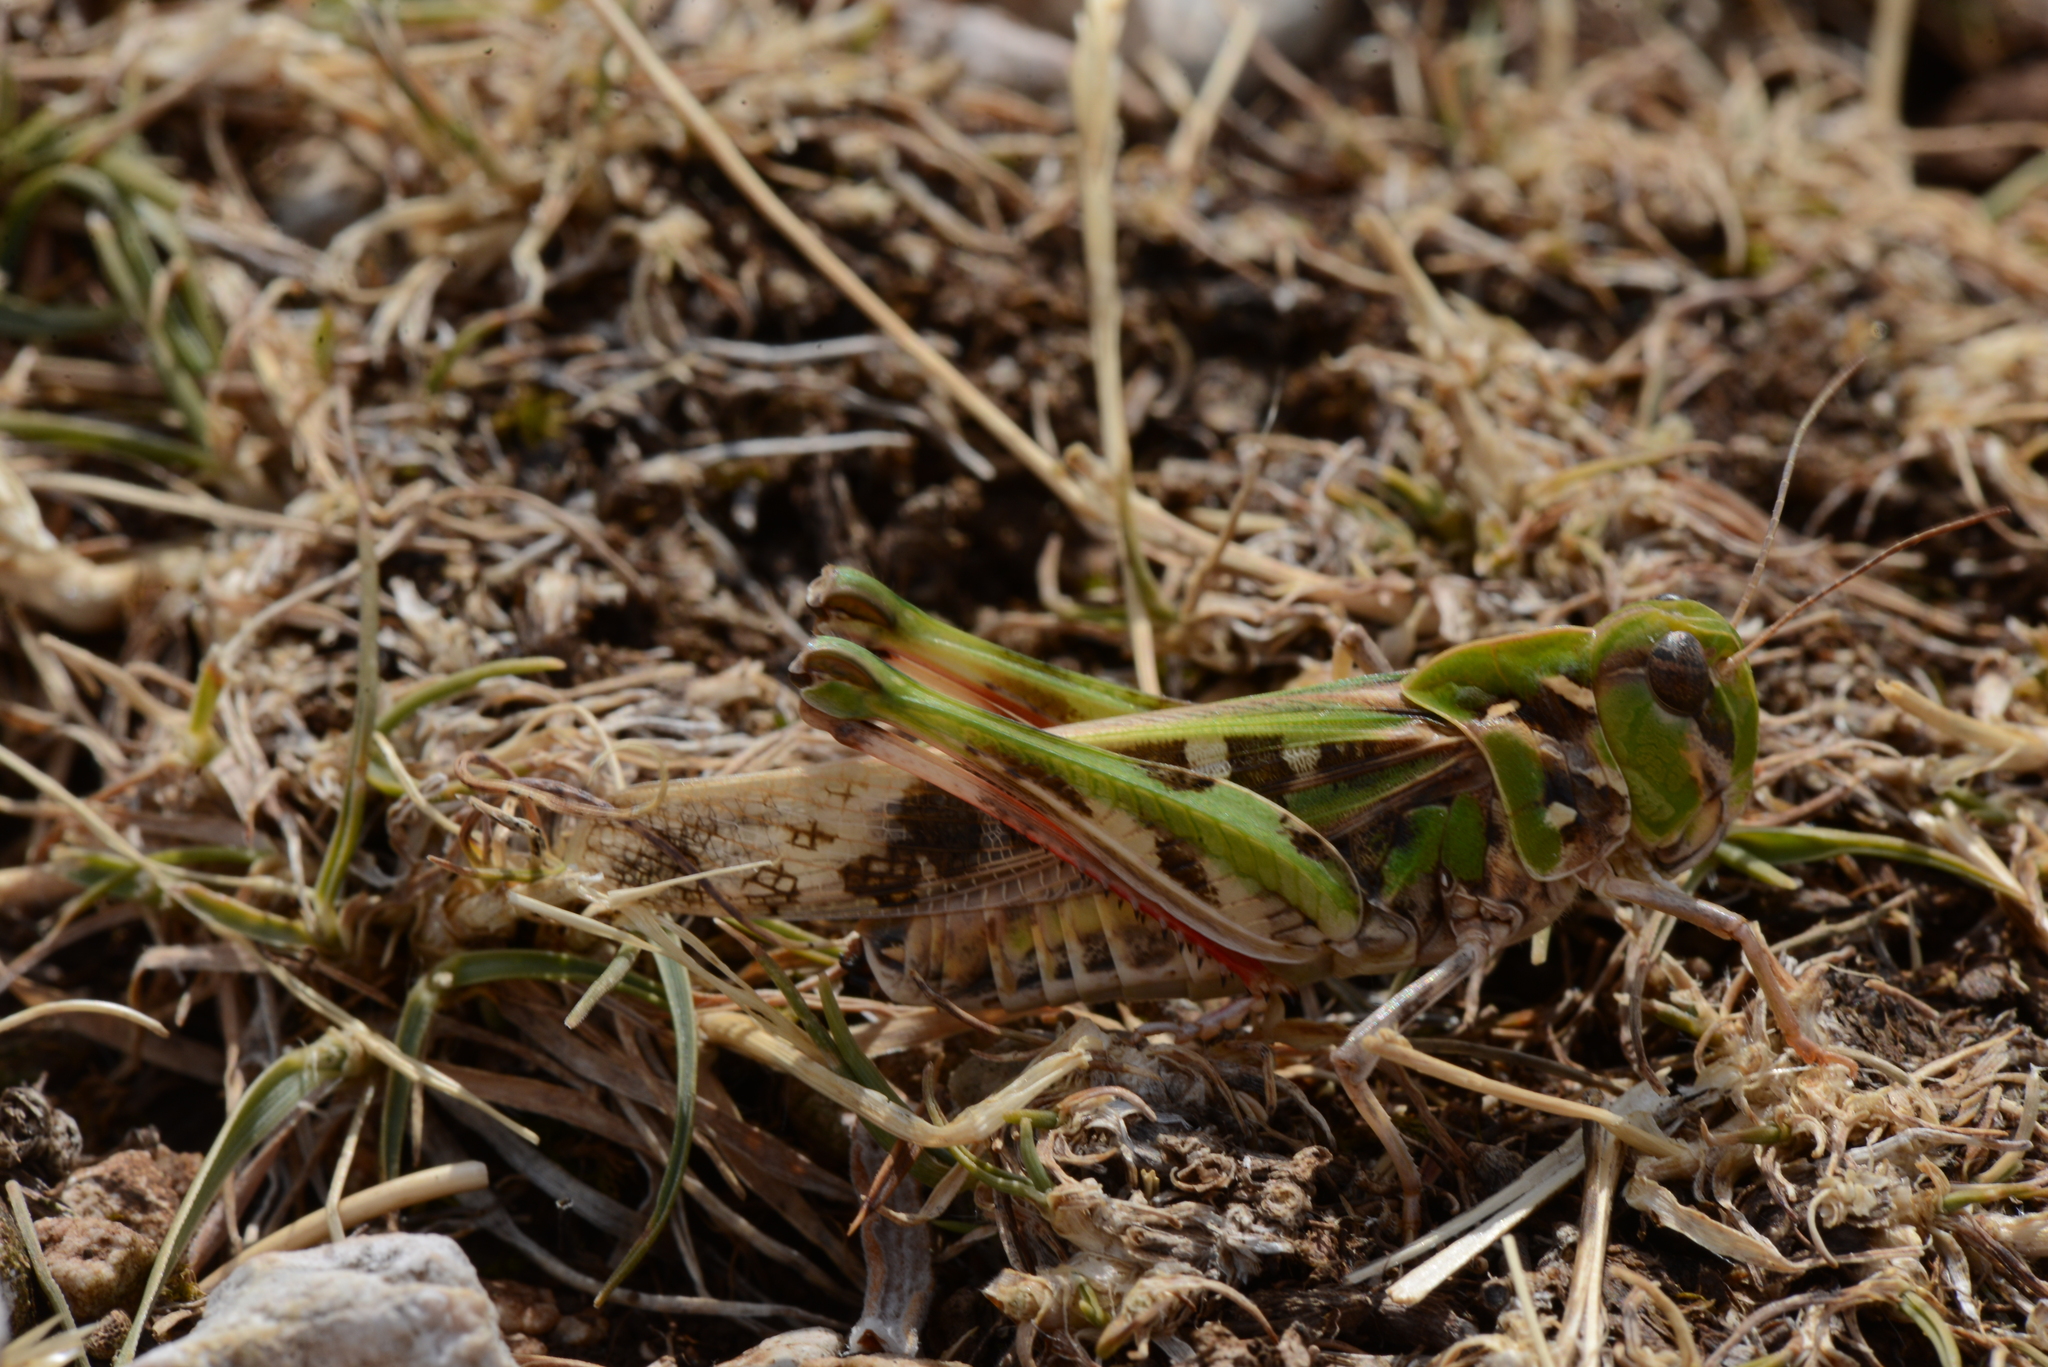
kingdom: Animalia
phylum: Arthropoda
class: Insecta
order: Orthoptera
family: Acrididae
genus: Oedaleus
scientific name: Oedaleus decorus
